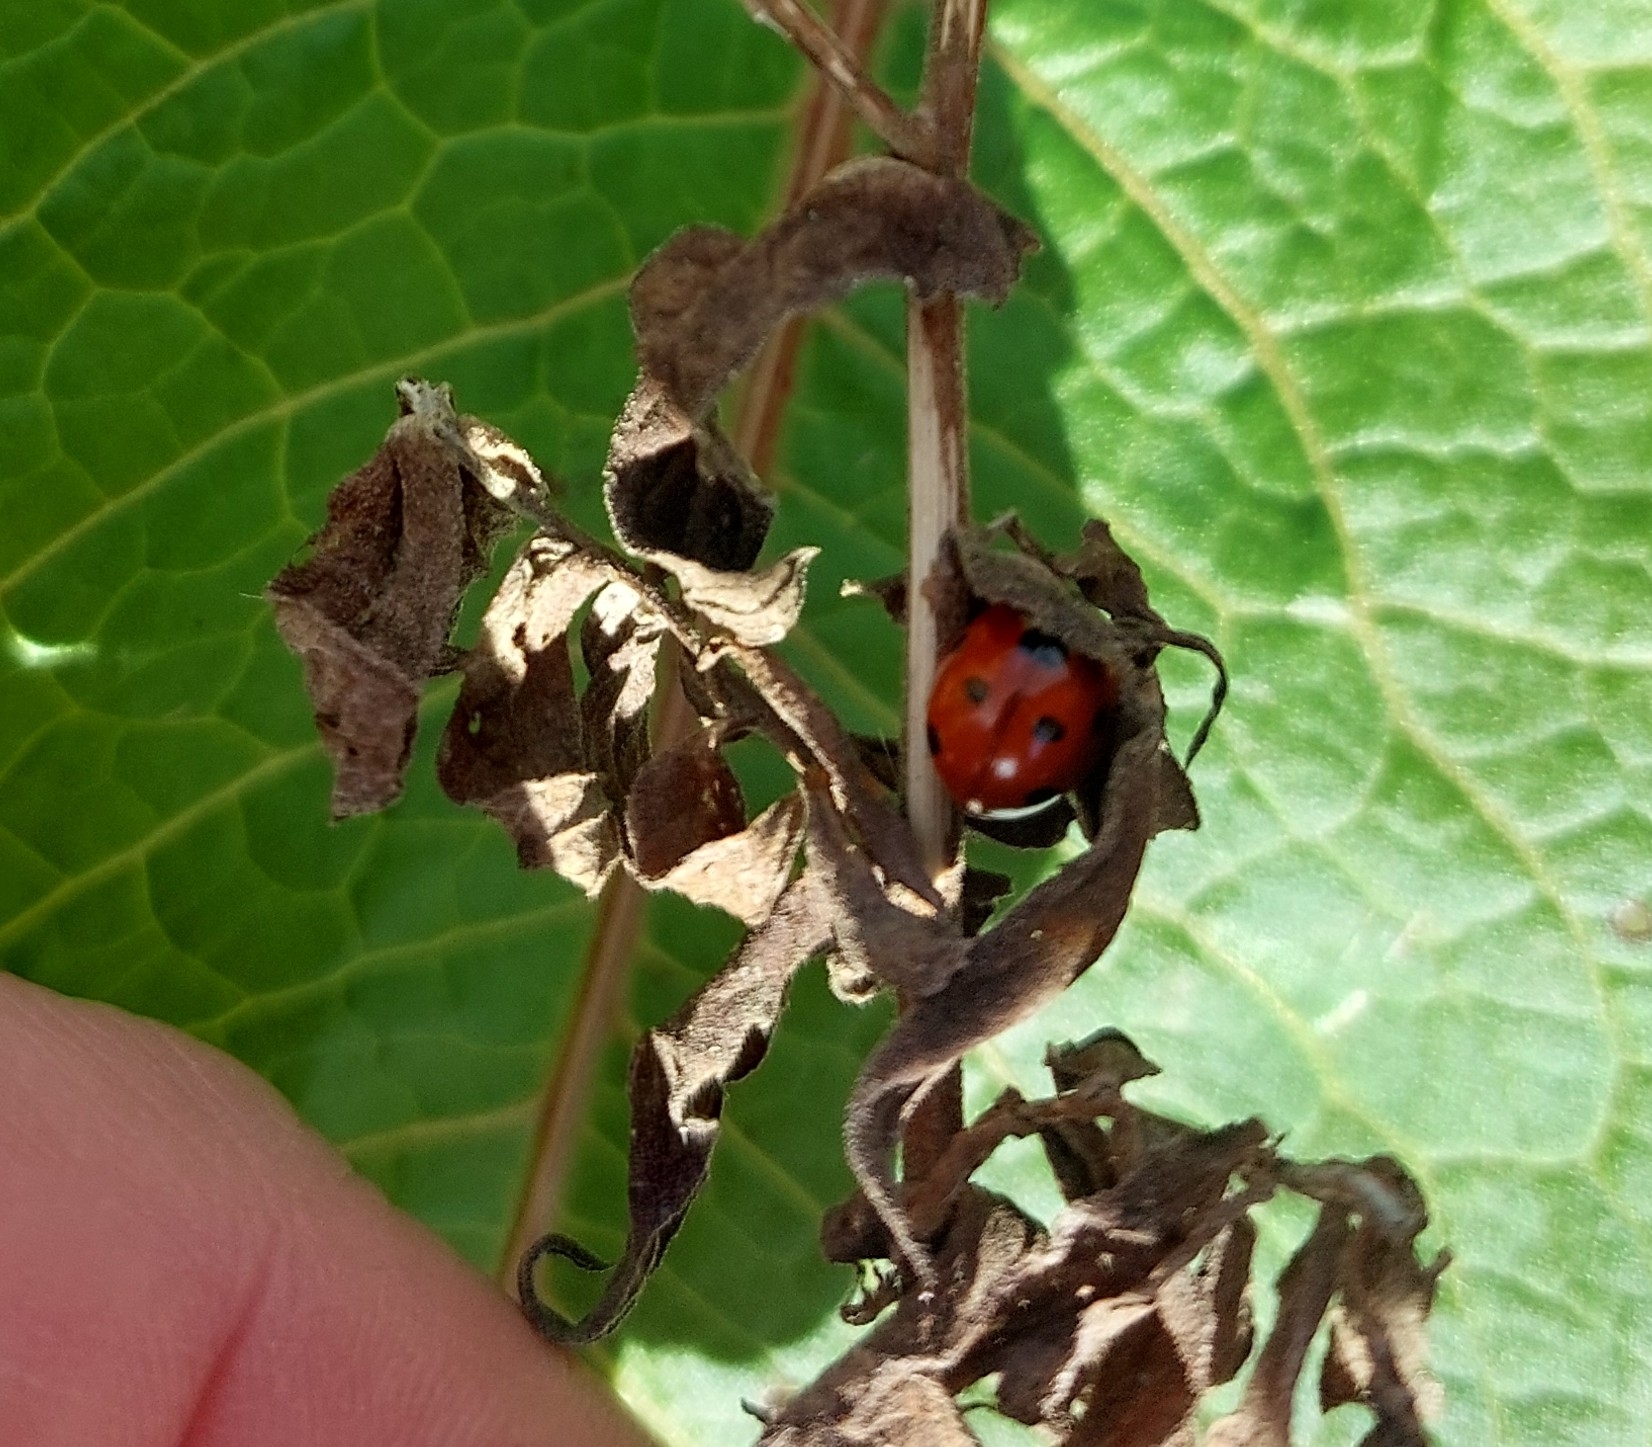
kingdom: Animalia
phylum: Arthropoda
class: Insecta
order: Coleoptera
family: Coccinellidae
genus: Coccinella
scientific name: Coccinella septempunctata
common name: Sevenspotted lady beetle
